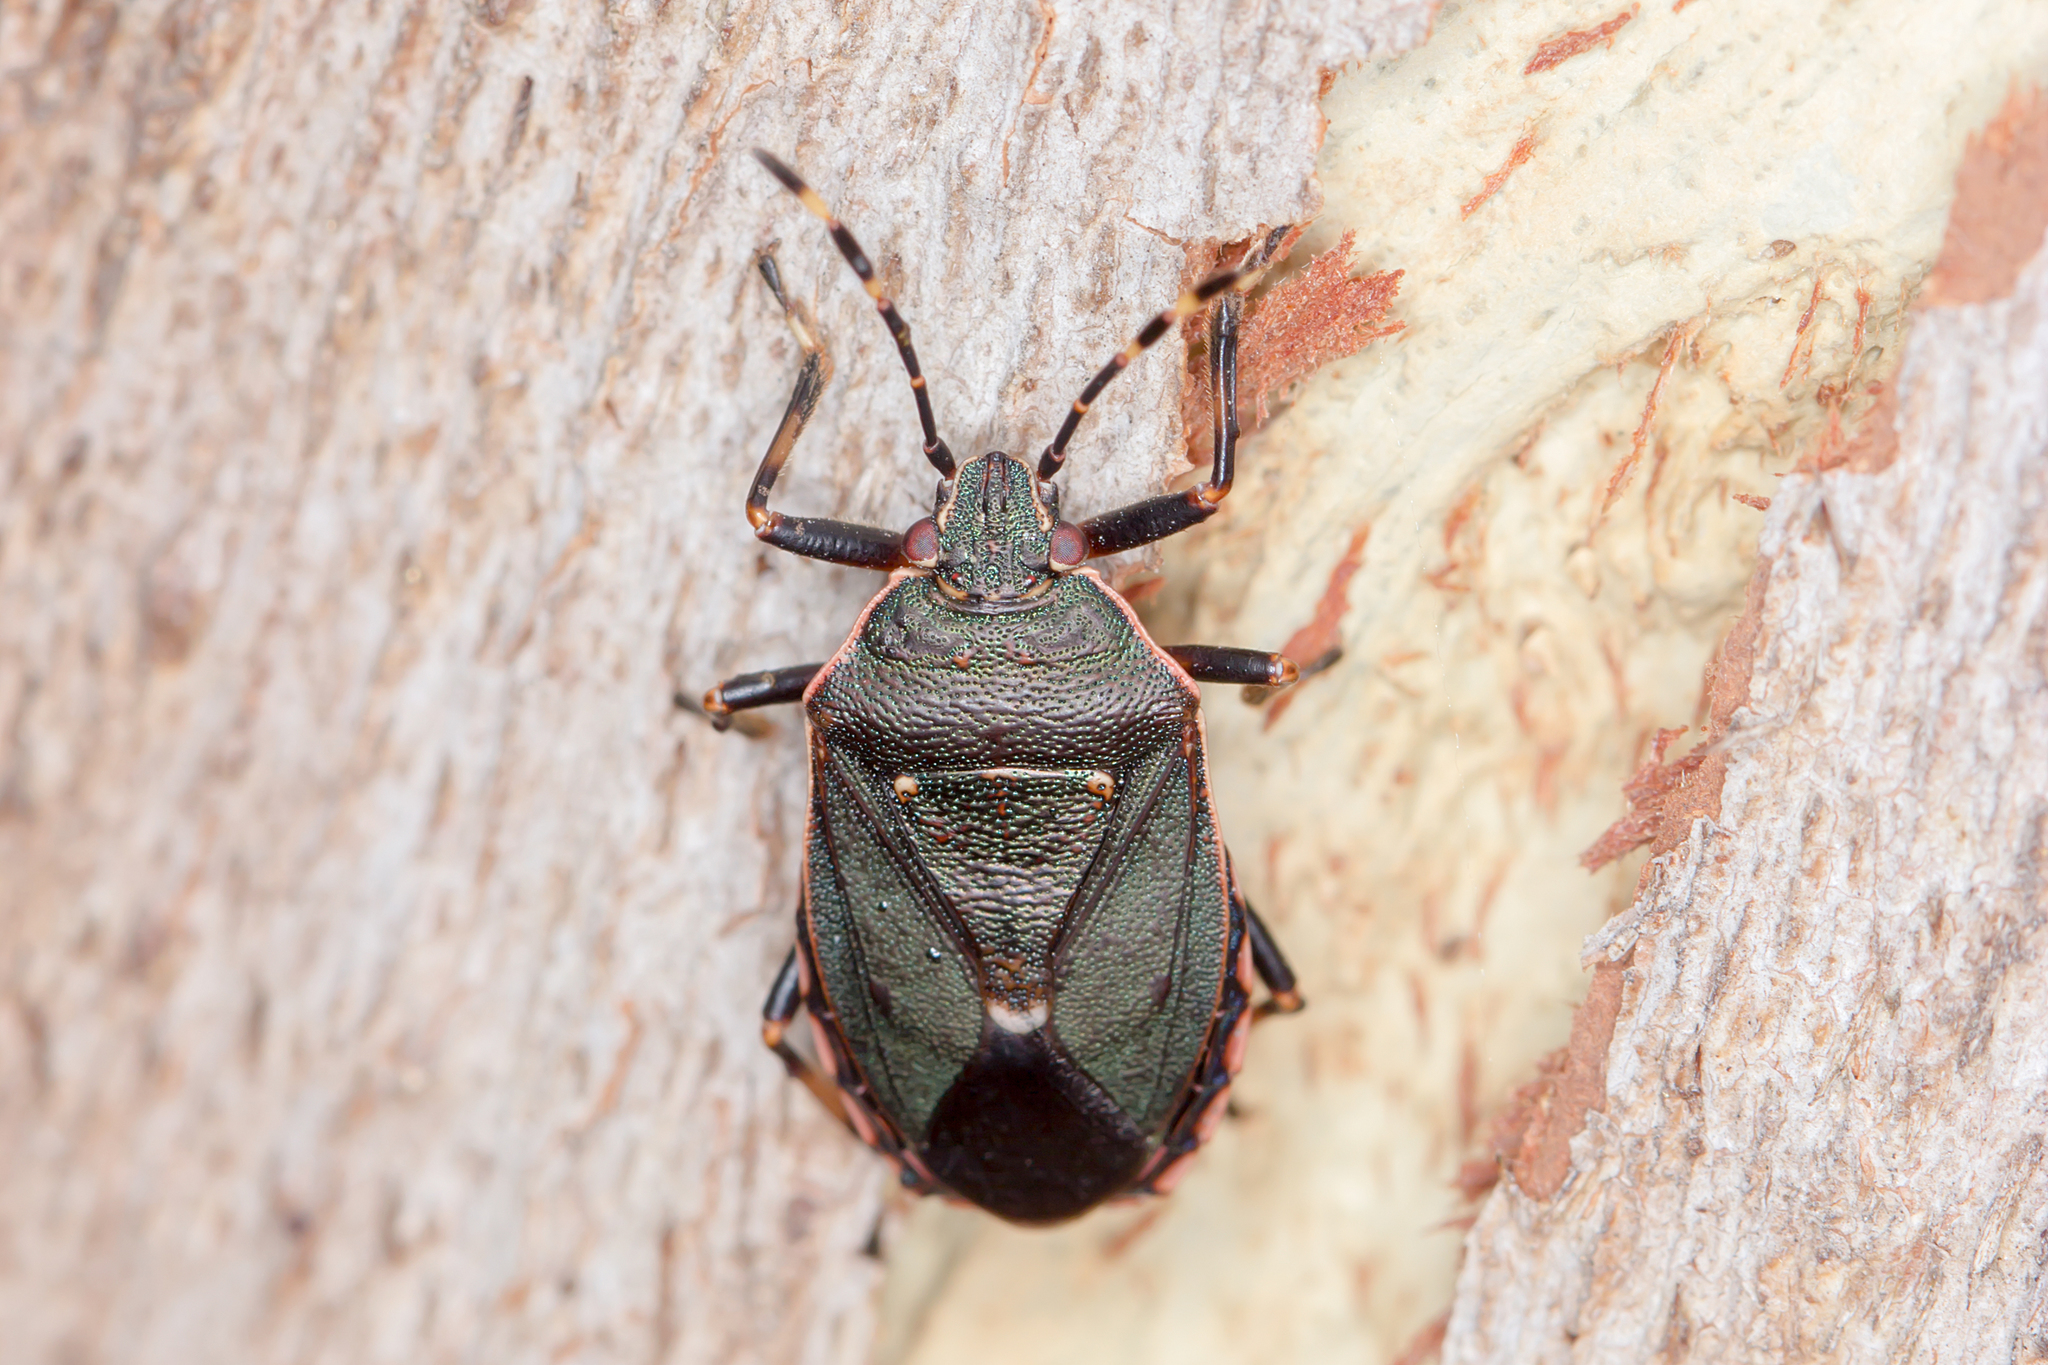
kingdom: Animalia
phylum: Arthropoda
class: Insecta
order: Hemiptera
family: Pentatomidae
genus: Notius
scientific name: Notius
